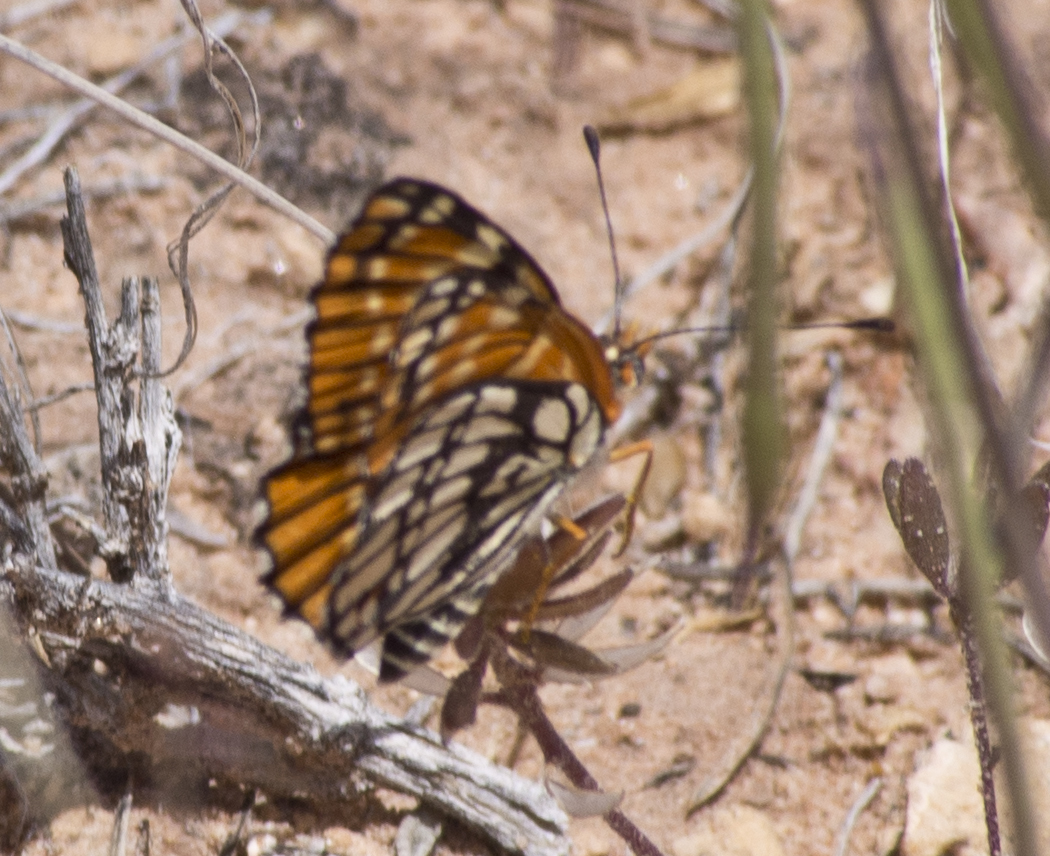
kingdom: Animalia
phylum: Arthropoda
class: Insecta
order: Lepidoptera
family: Nymphalidae
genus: Thessalia
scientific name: Thessalia leanira
